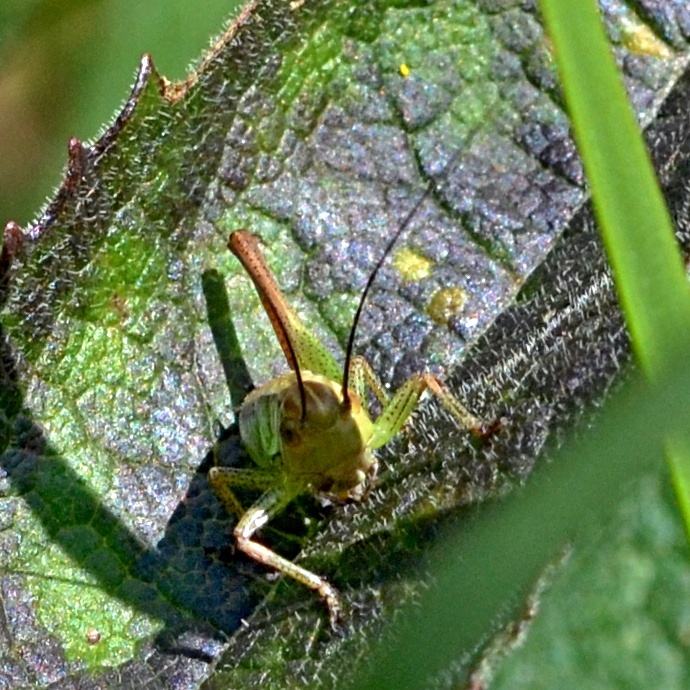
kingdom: Animalia
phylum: Arthropoda
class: Insecta
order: Orthoptera
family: Tettigoniidae
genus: Roeseliana
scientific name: Roeseliana roeselii
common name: Roesel's bush cricket
